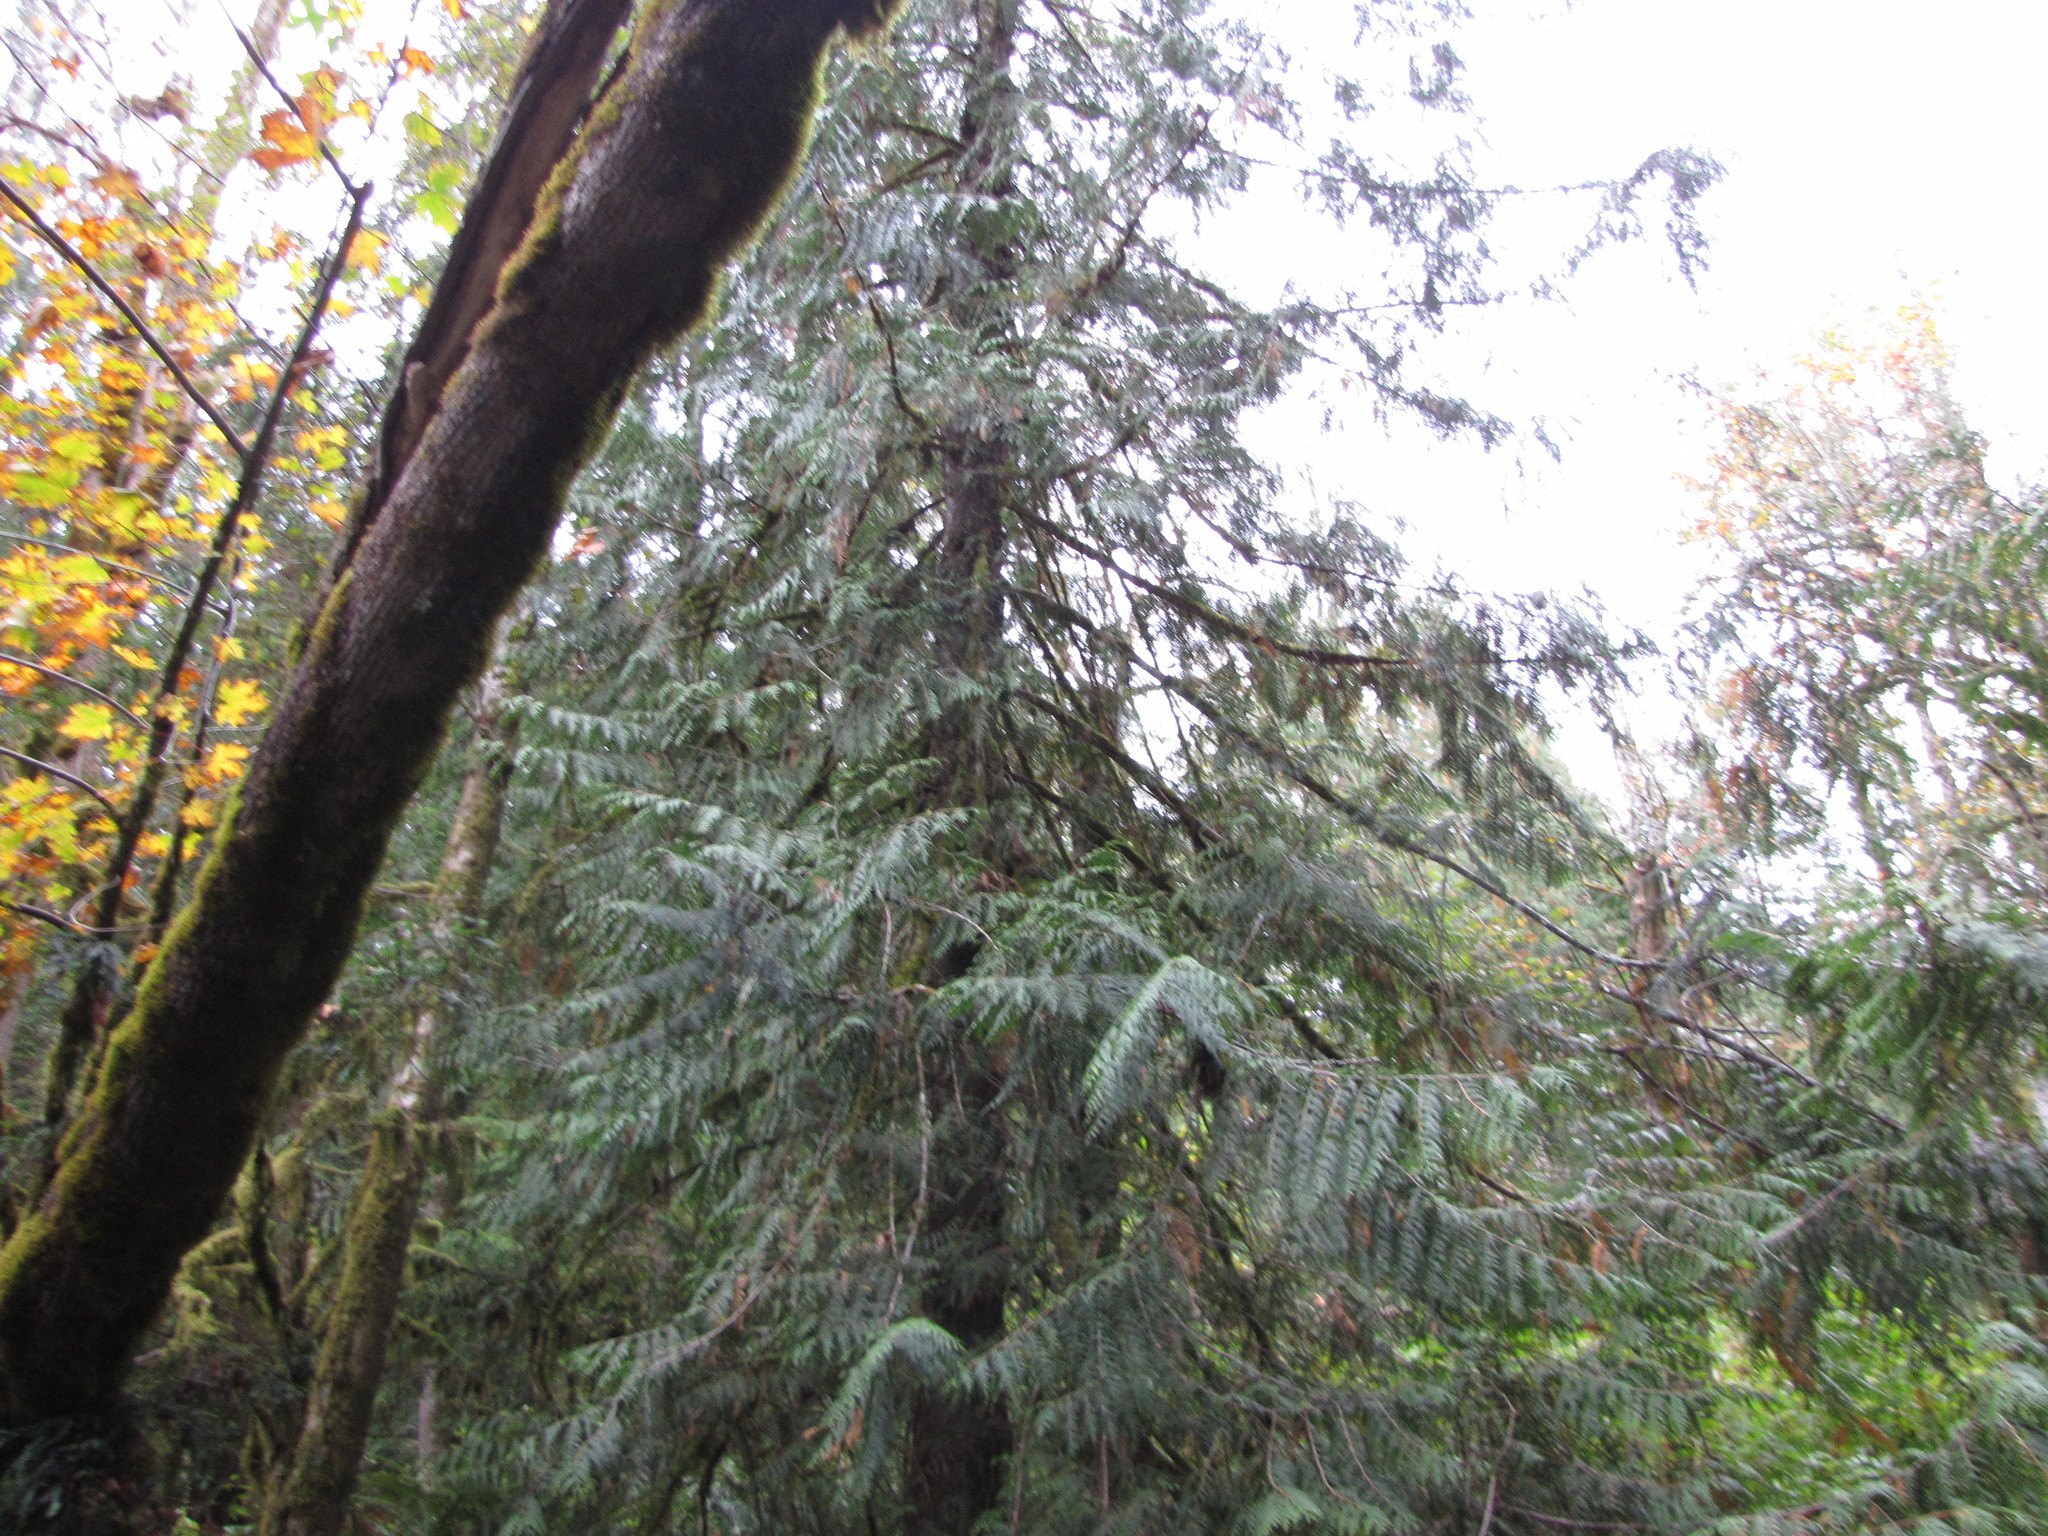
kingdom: Plantae
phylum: Tracheophyta
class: Pinopsida
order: Pinales
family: Cupressaceae
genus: Thuja
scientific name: Thuja plicata
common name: Western red-cedar
